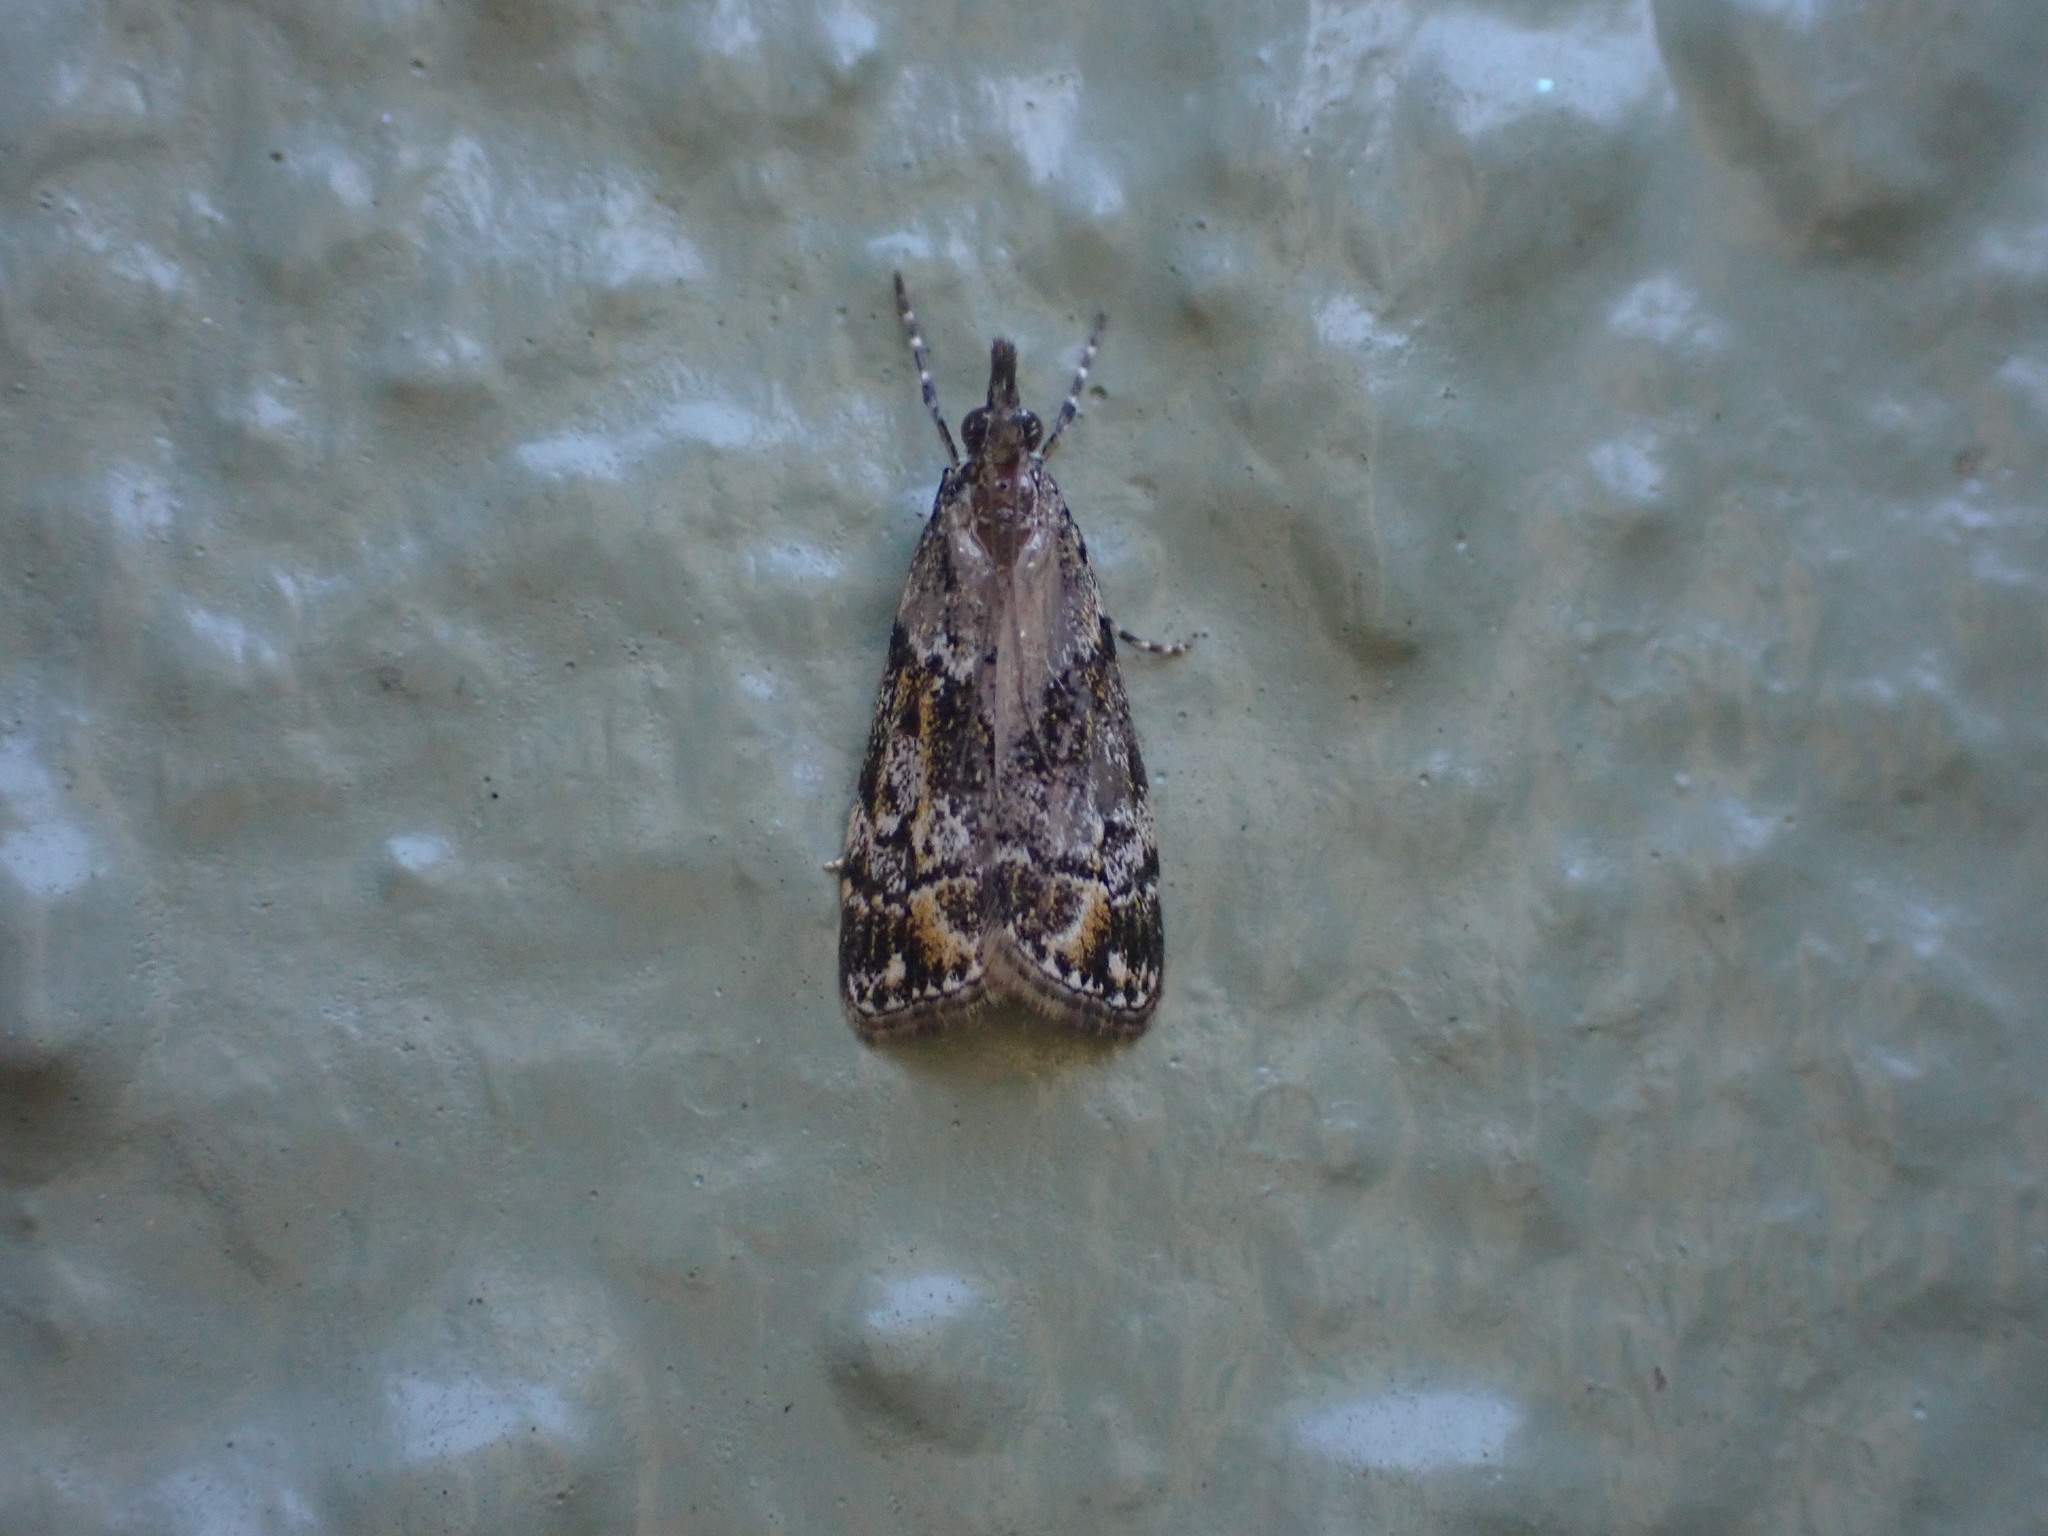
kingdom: Animalia
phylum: Arthropoda
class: Insecta
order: Lepidoptera
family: Crambidae
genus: Eudonia
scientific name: Eudonia minualis
